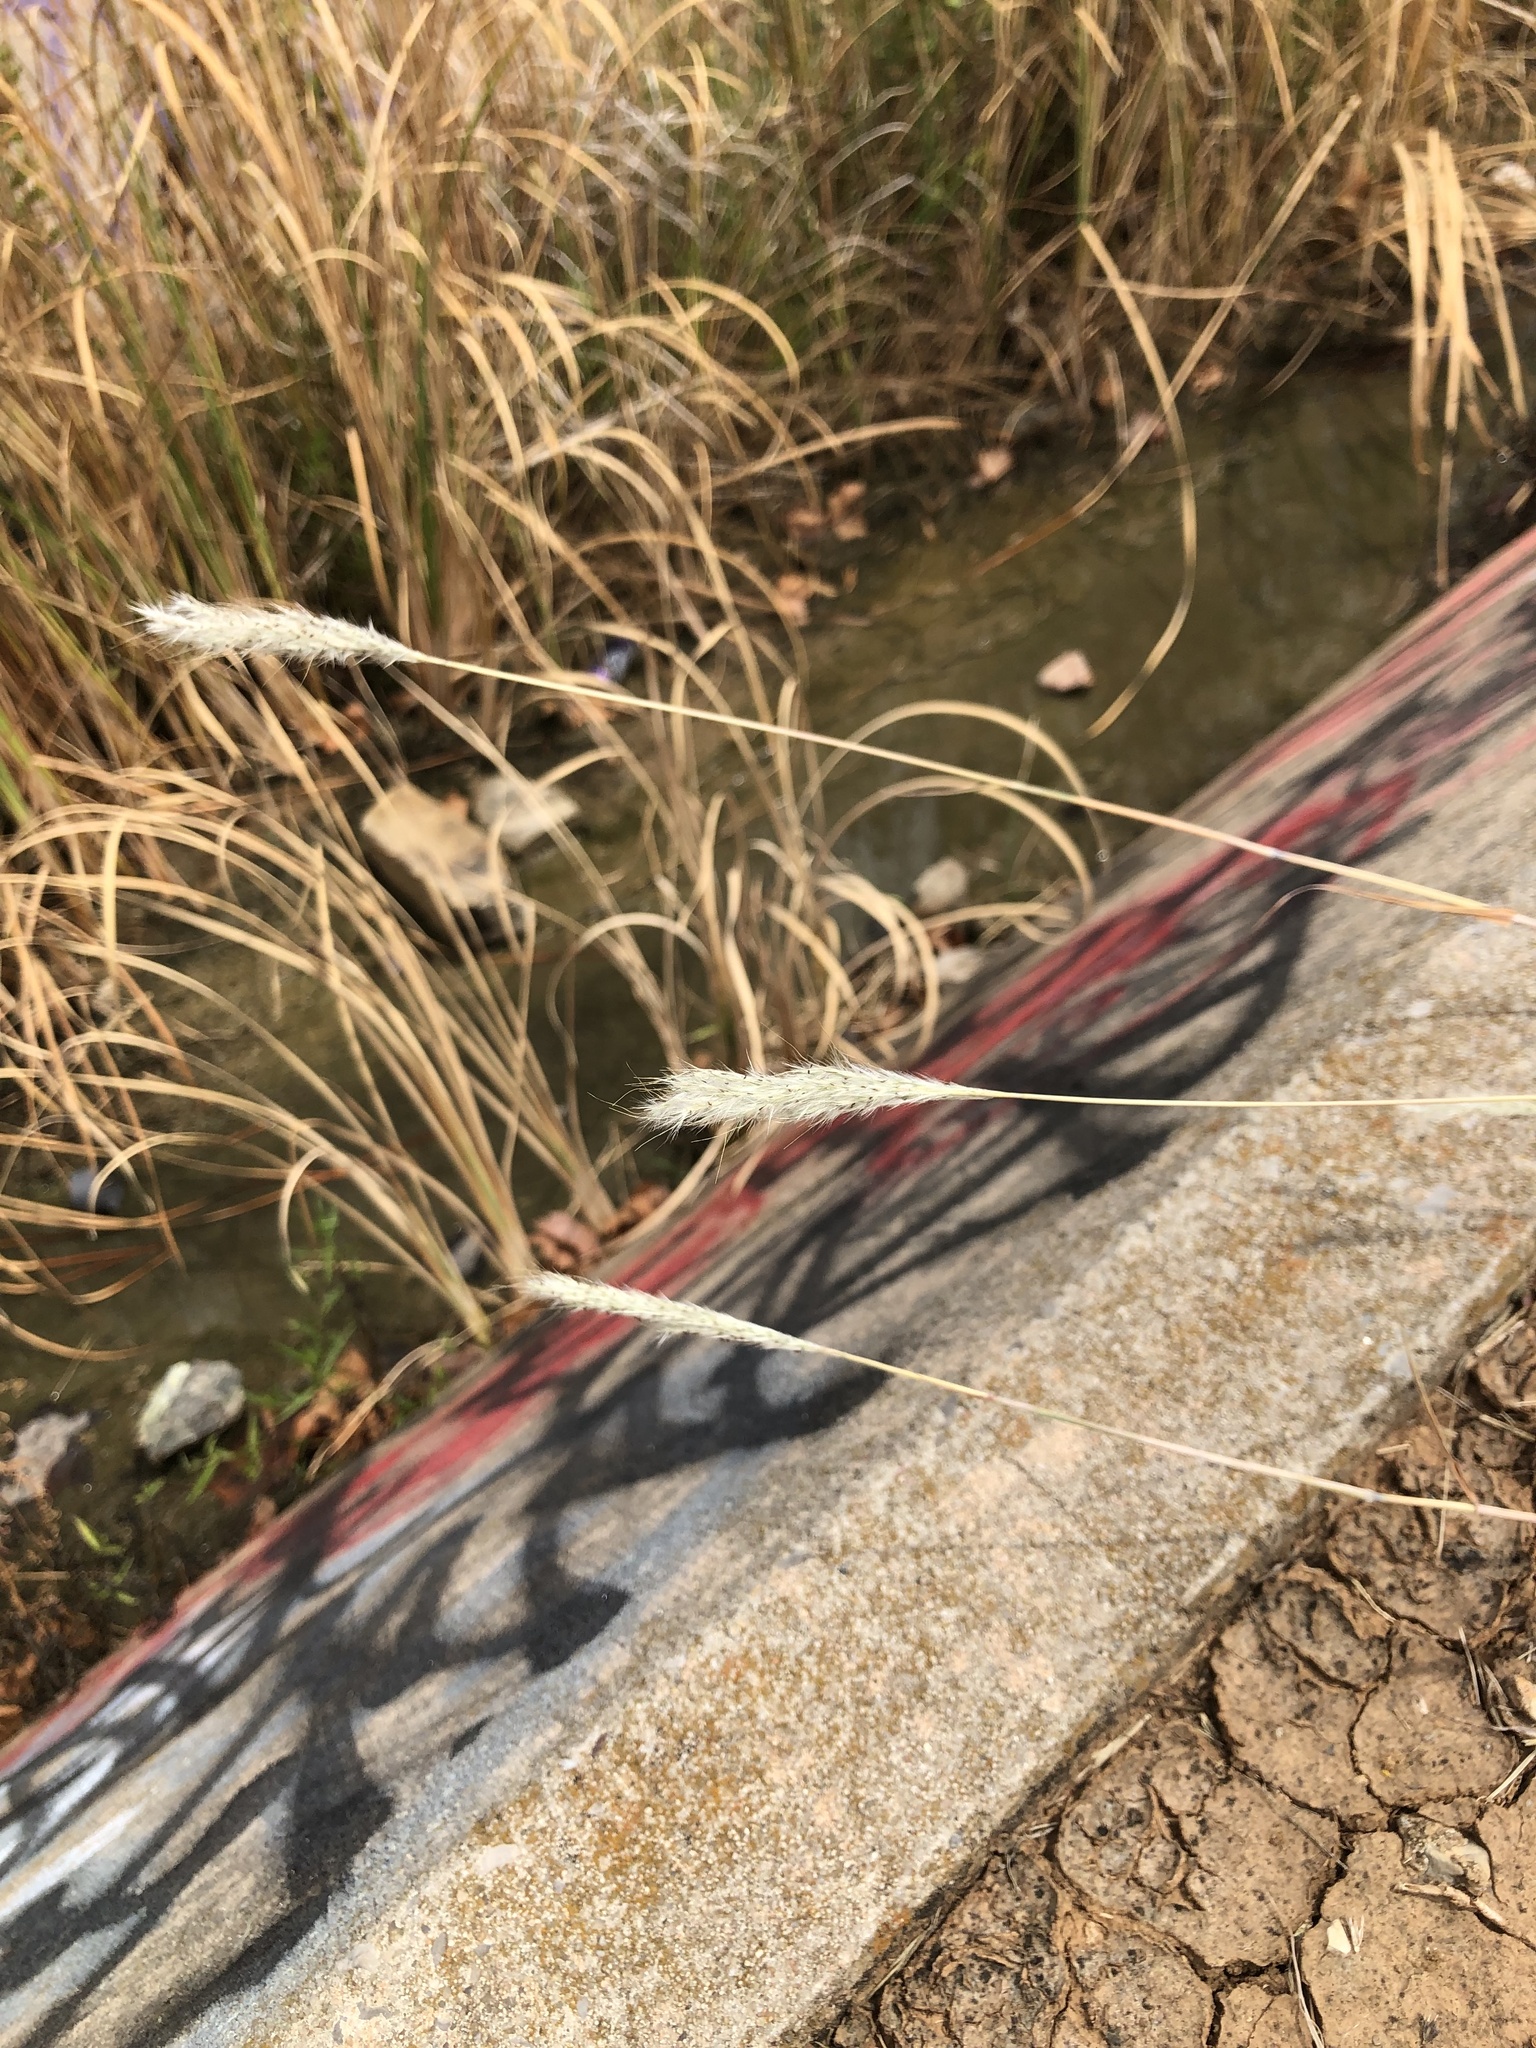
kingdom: Plantae
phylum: Tracheophyta
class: Liliopsida
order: Poales
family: Poaceae
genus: Bothriochloa
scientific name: Bothriochloa torreyana
